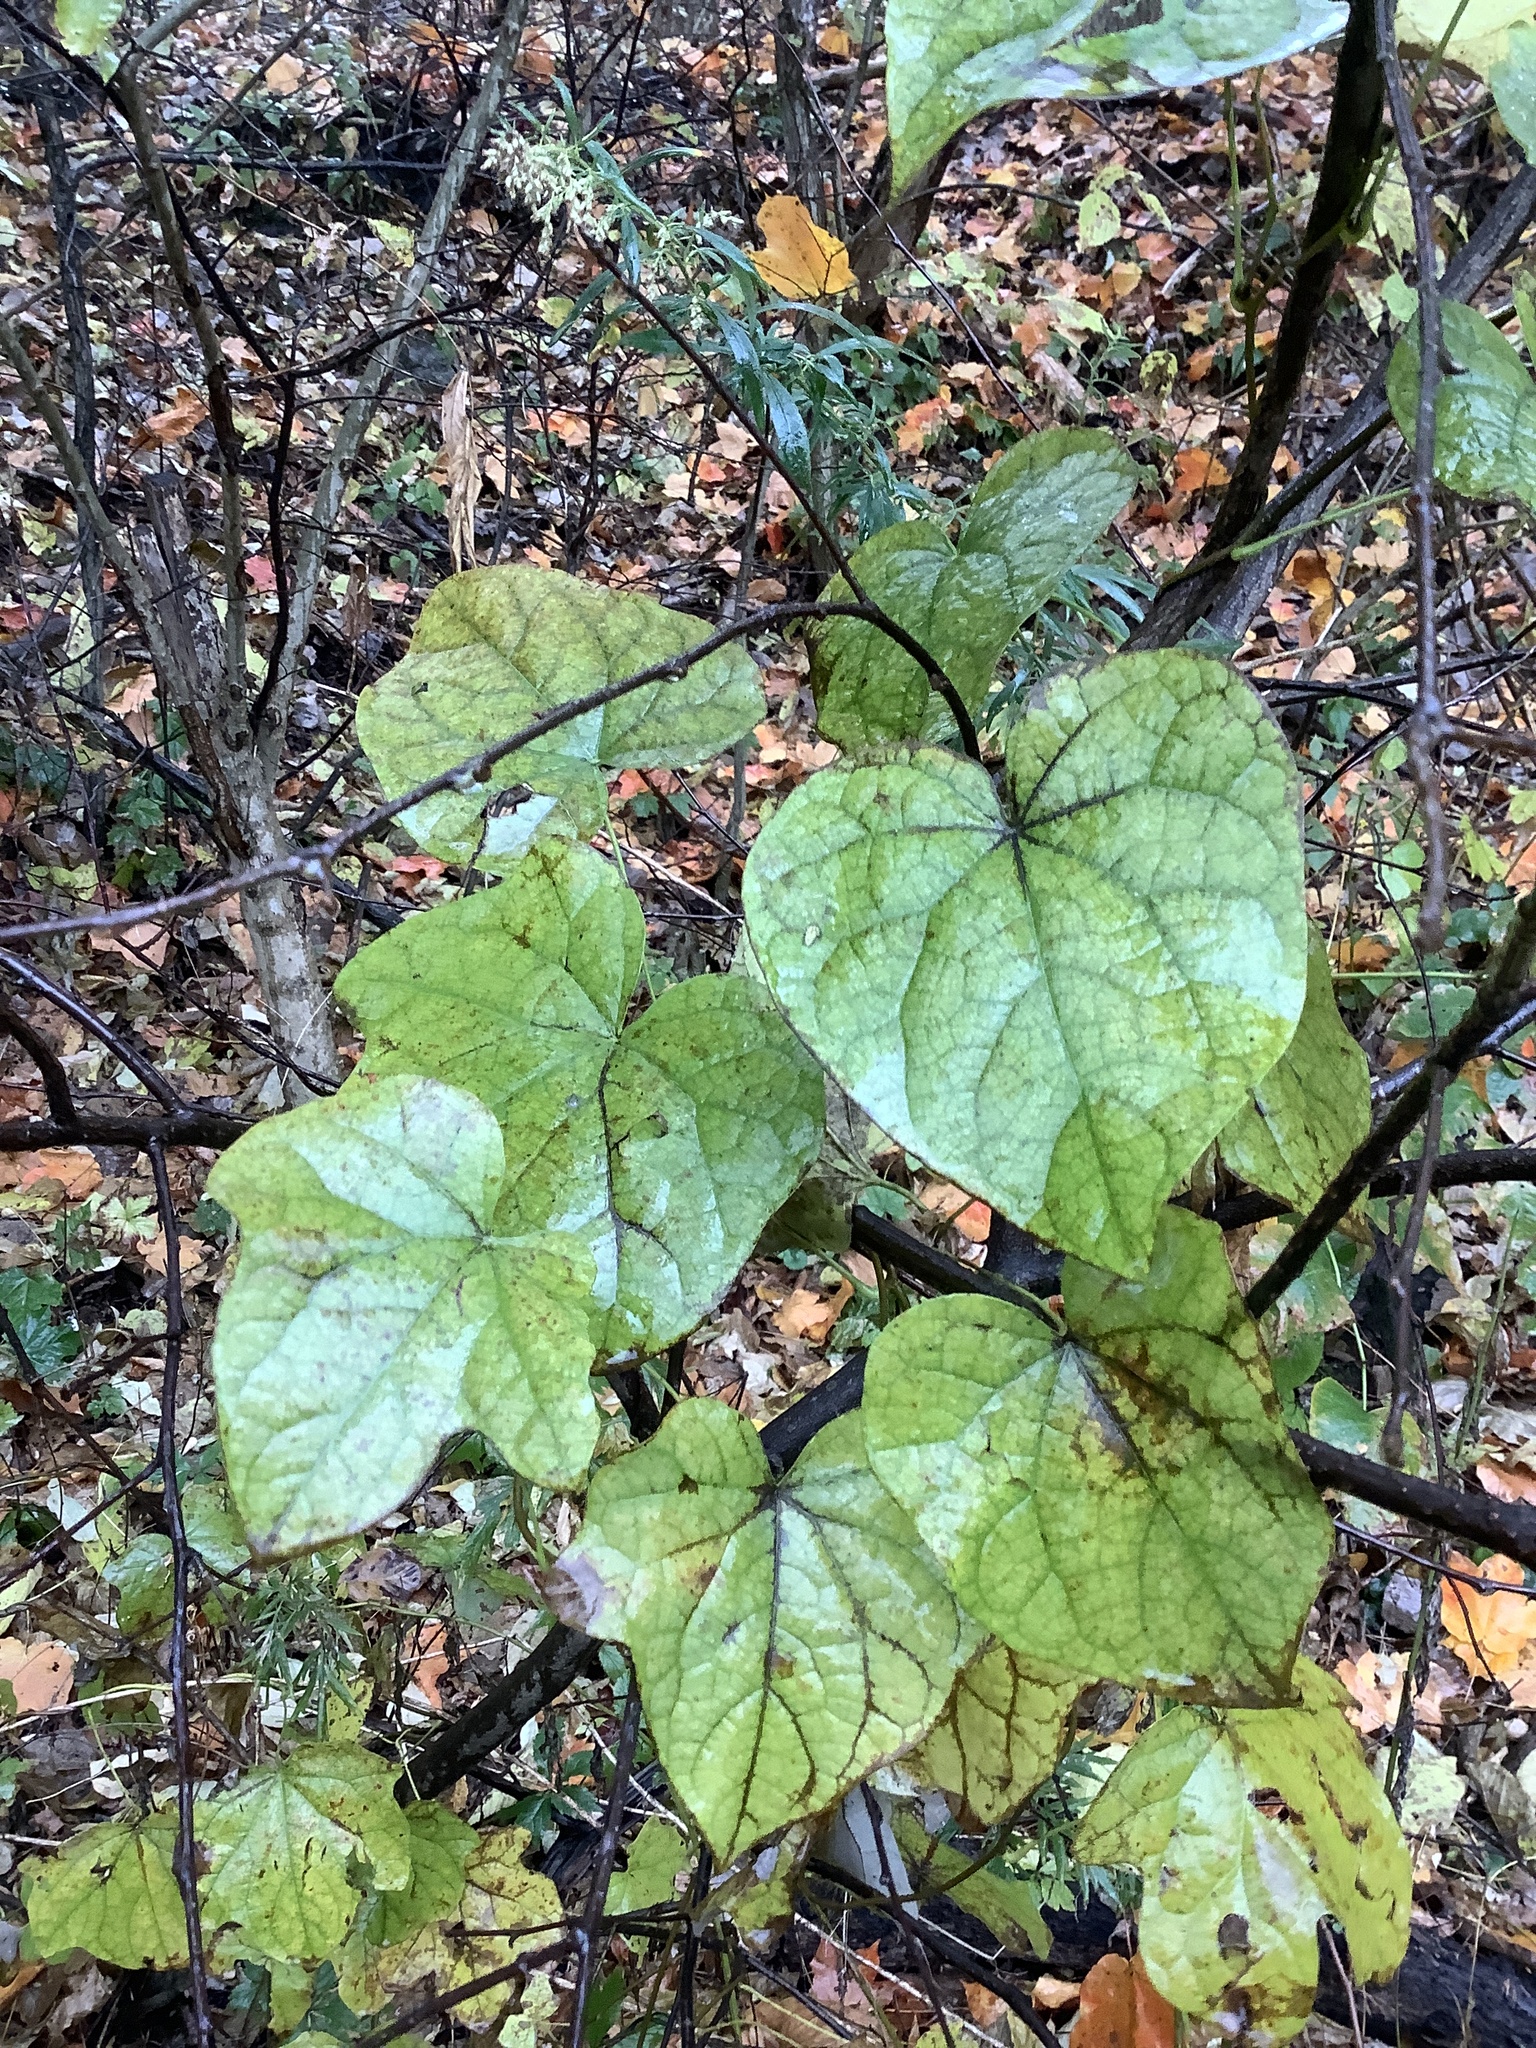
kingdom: Plantae
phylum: Tracheophyta
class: Magnoliopsida
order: Ranunculales
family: Menispermaceae
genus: Menispermum
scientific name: Menispermum canadense
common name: Moonseed
